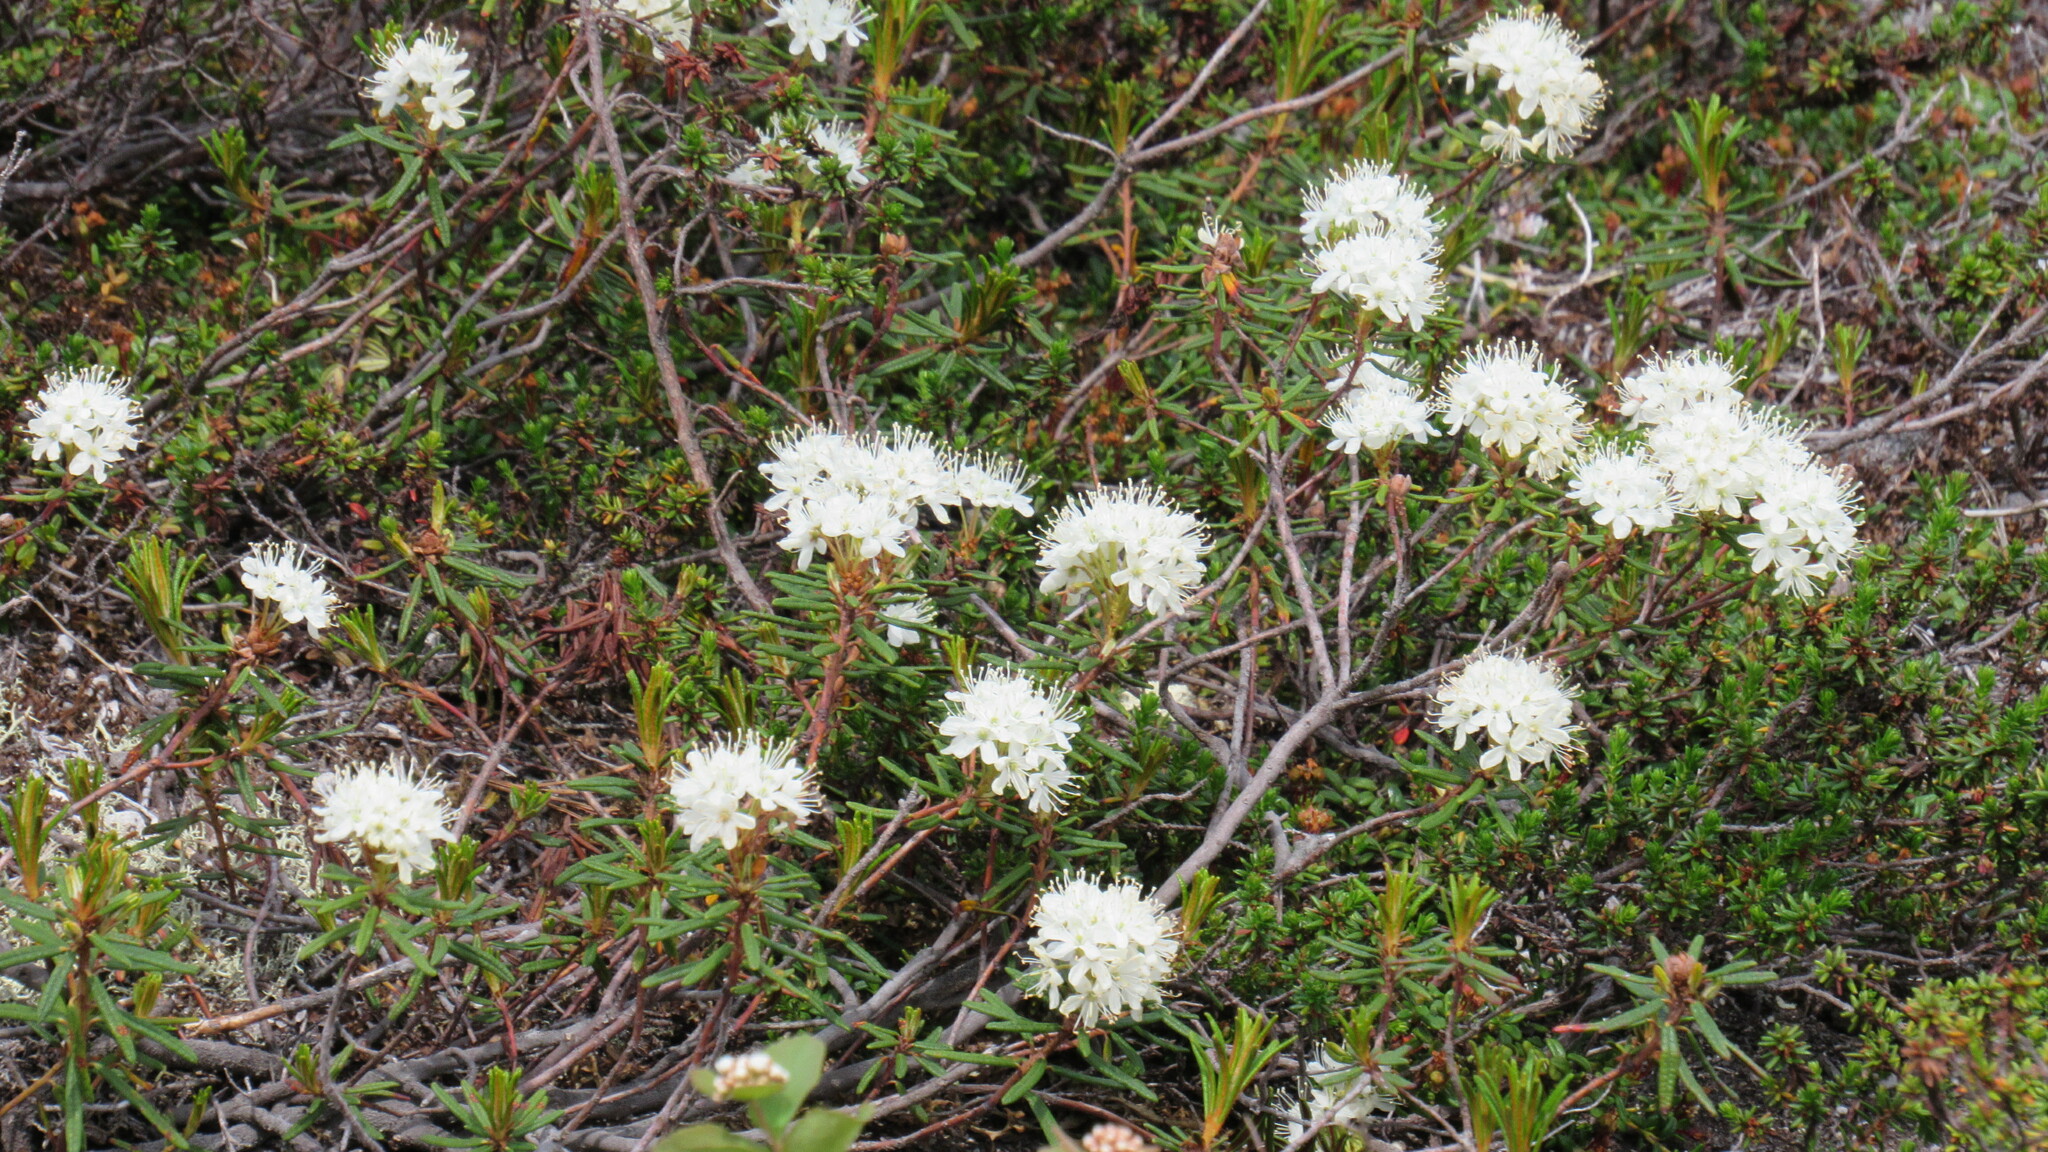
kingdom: Plantae
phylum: Tracheophyta
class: Magnoliopsida
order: Ericales
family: Ericaceae
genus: Rhododendron
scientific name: Rhododendron tomentosum
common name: Marsh labrador tea
